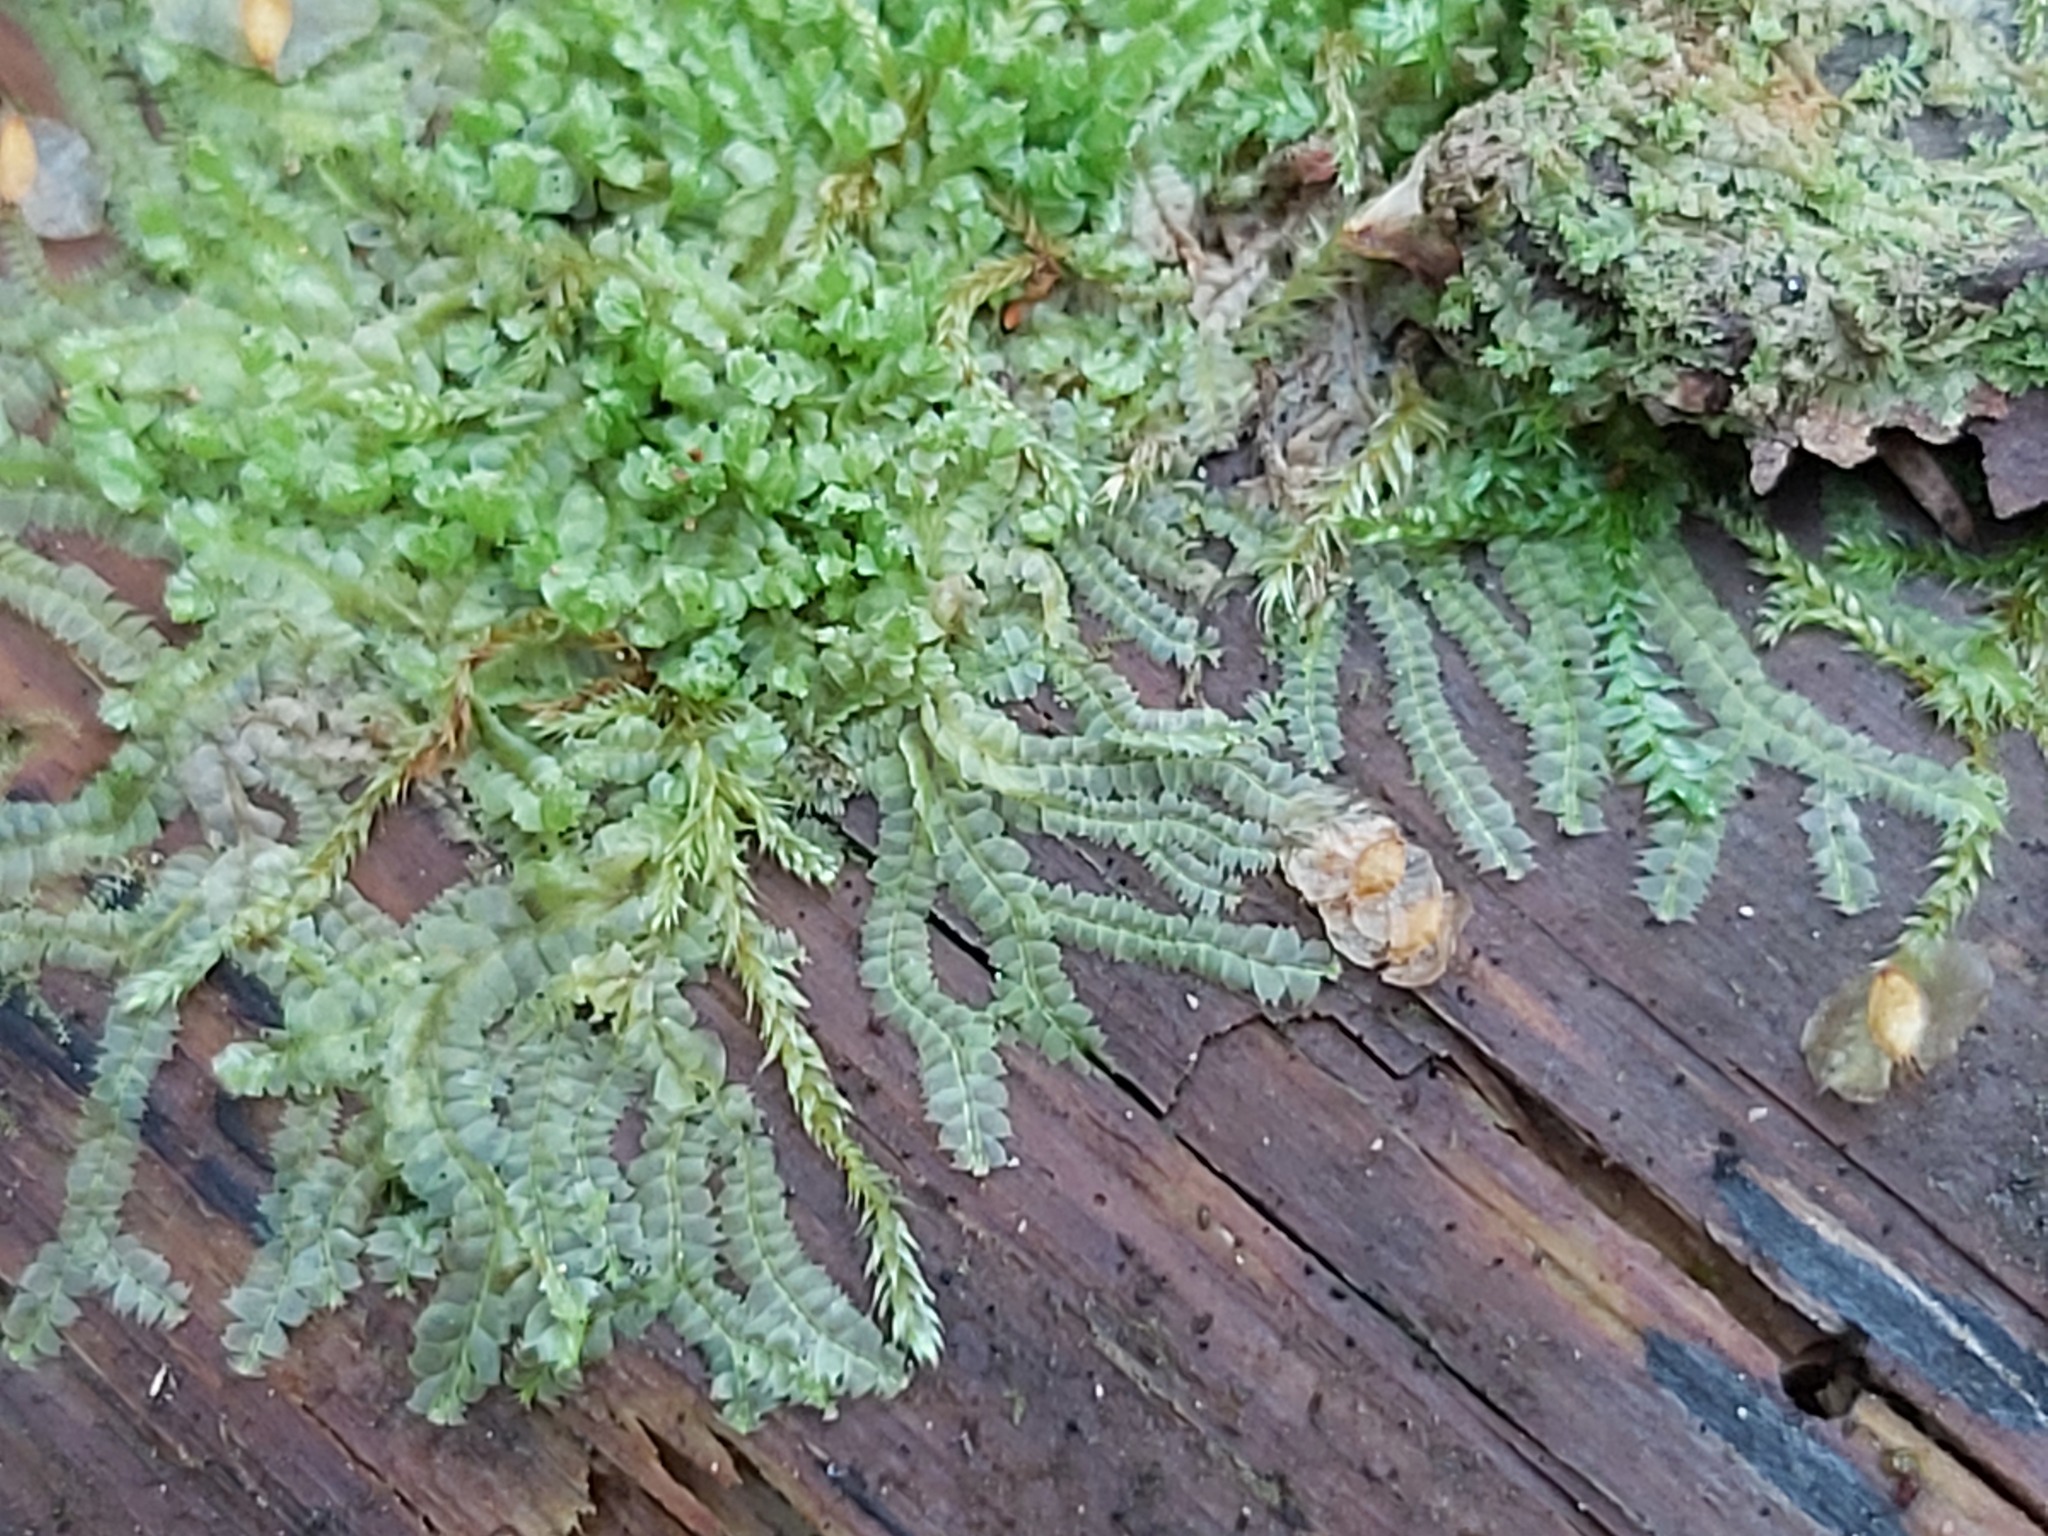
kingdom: Plantae
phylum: Marchantiophyta
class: Jungermanniopsida
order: Jungermanniales
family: Lophocoleaceae
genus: Lophocolea
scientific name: Lophocolea heterophylla
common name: Variable-leaved crestwort
